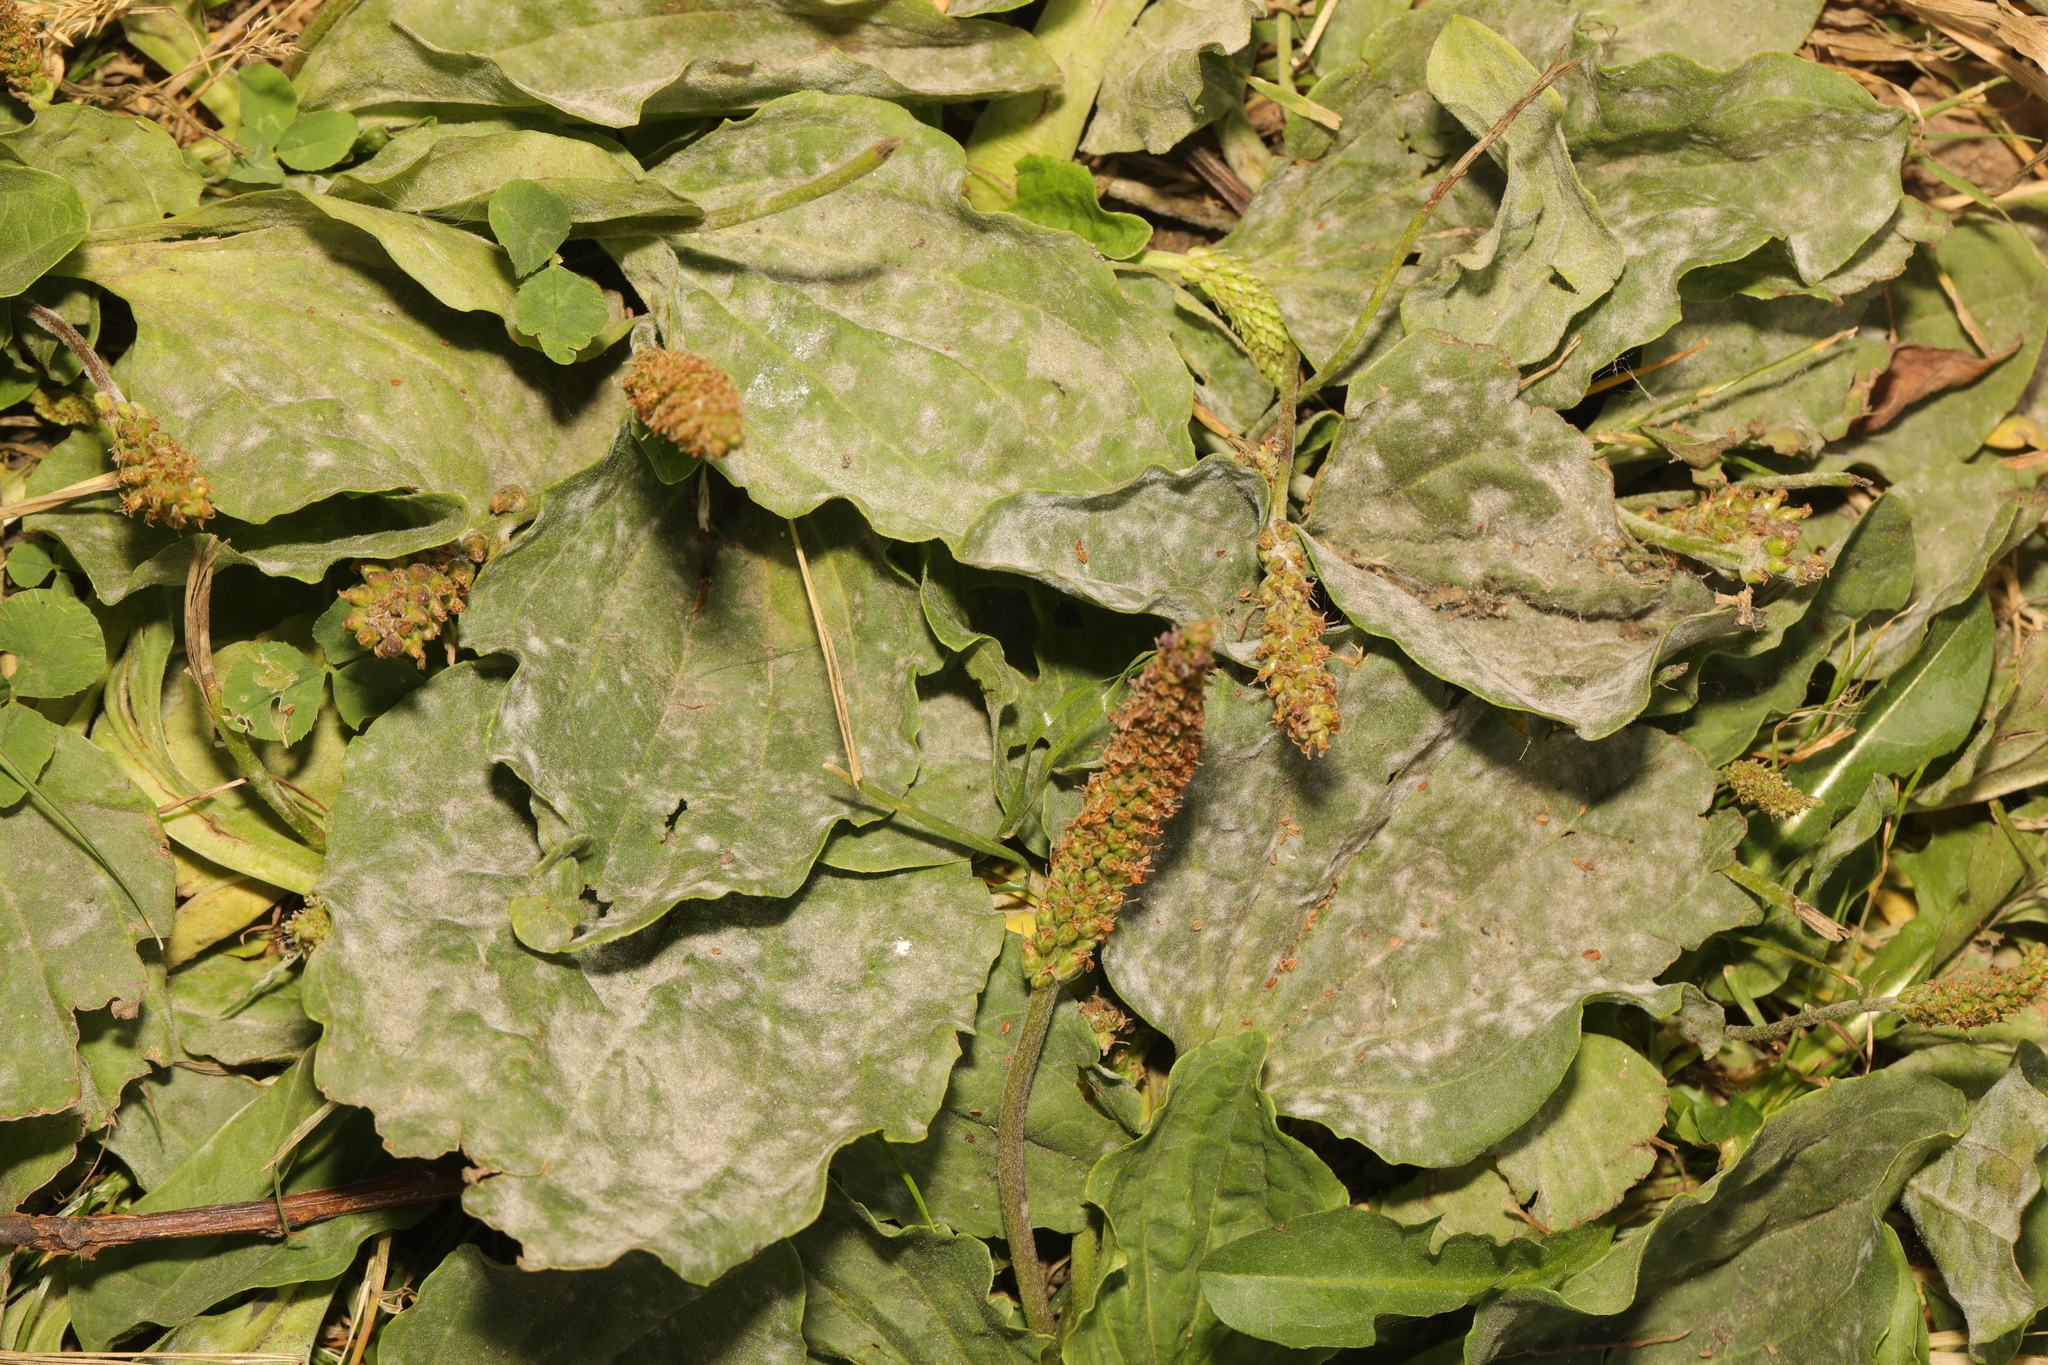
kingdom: Plantae
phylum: Tracheophyta
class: Magnoliopsida
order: Lamiales
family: Plantaginaceae
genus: Plantago
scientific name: Plantago major
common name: Common plantain
